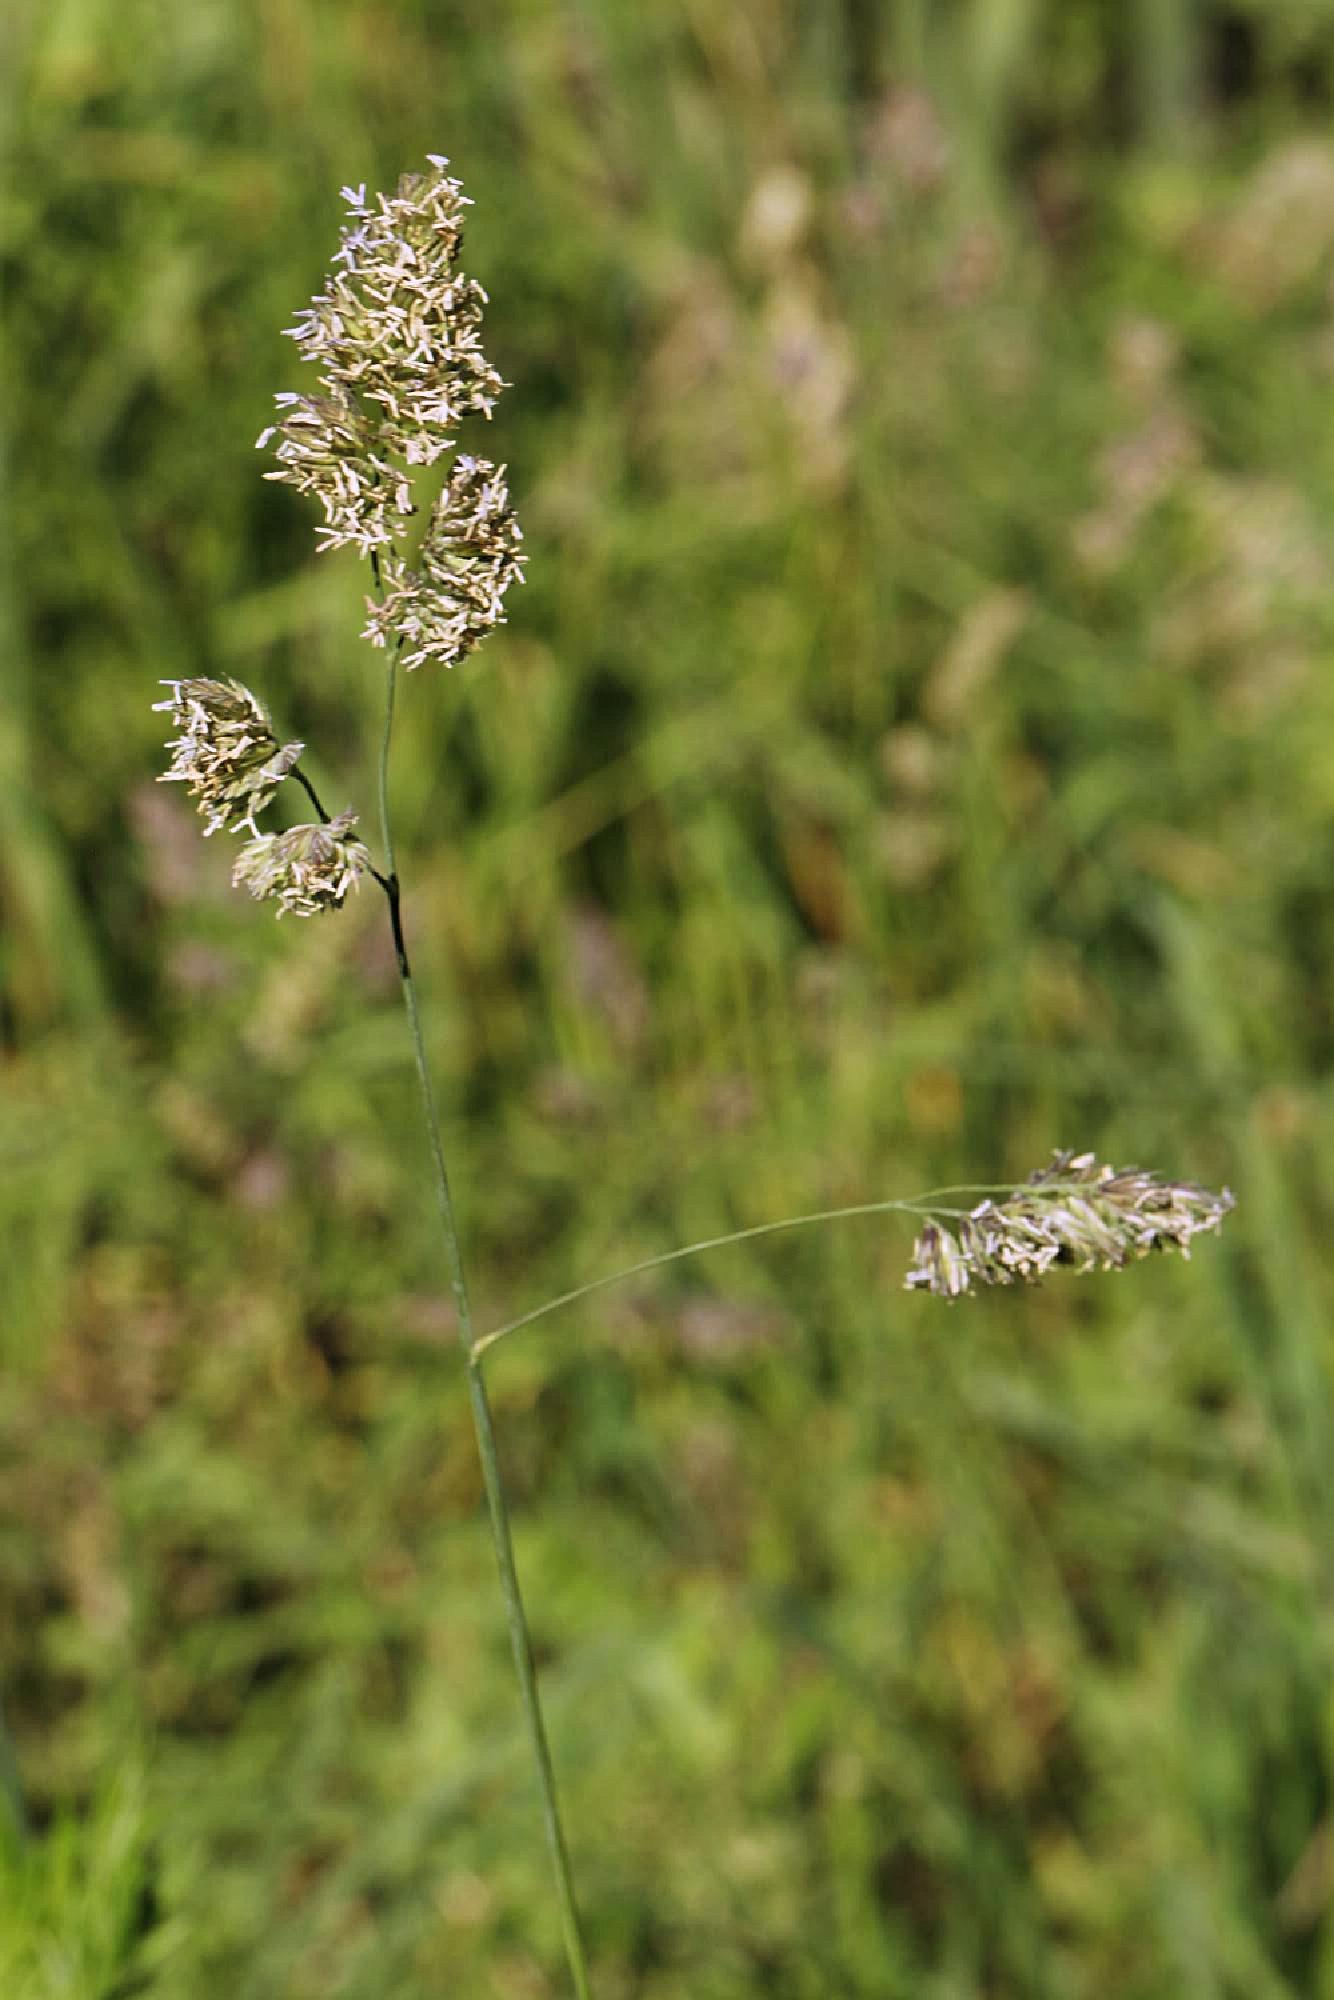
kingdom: Plantae
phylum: Tracheophyta
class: Liliopsida
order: Poales
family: Poaceae
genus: Dactylis
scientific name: Dactylis glomerata
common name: Orchardgrass
